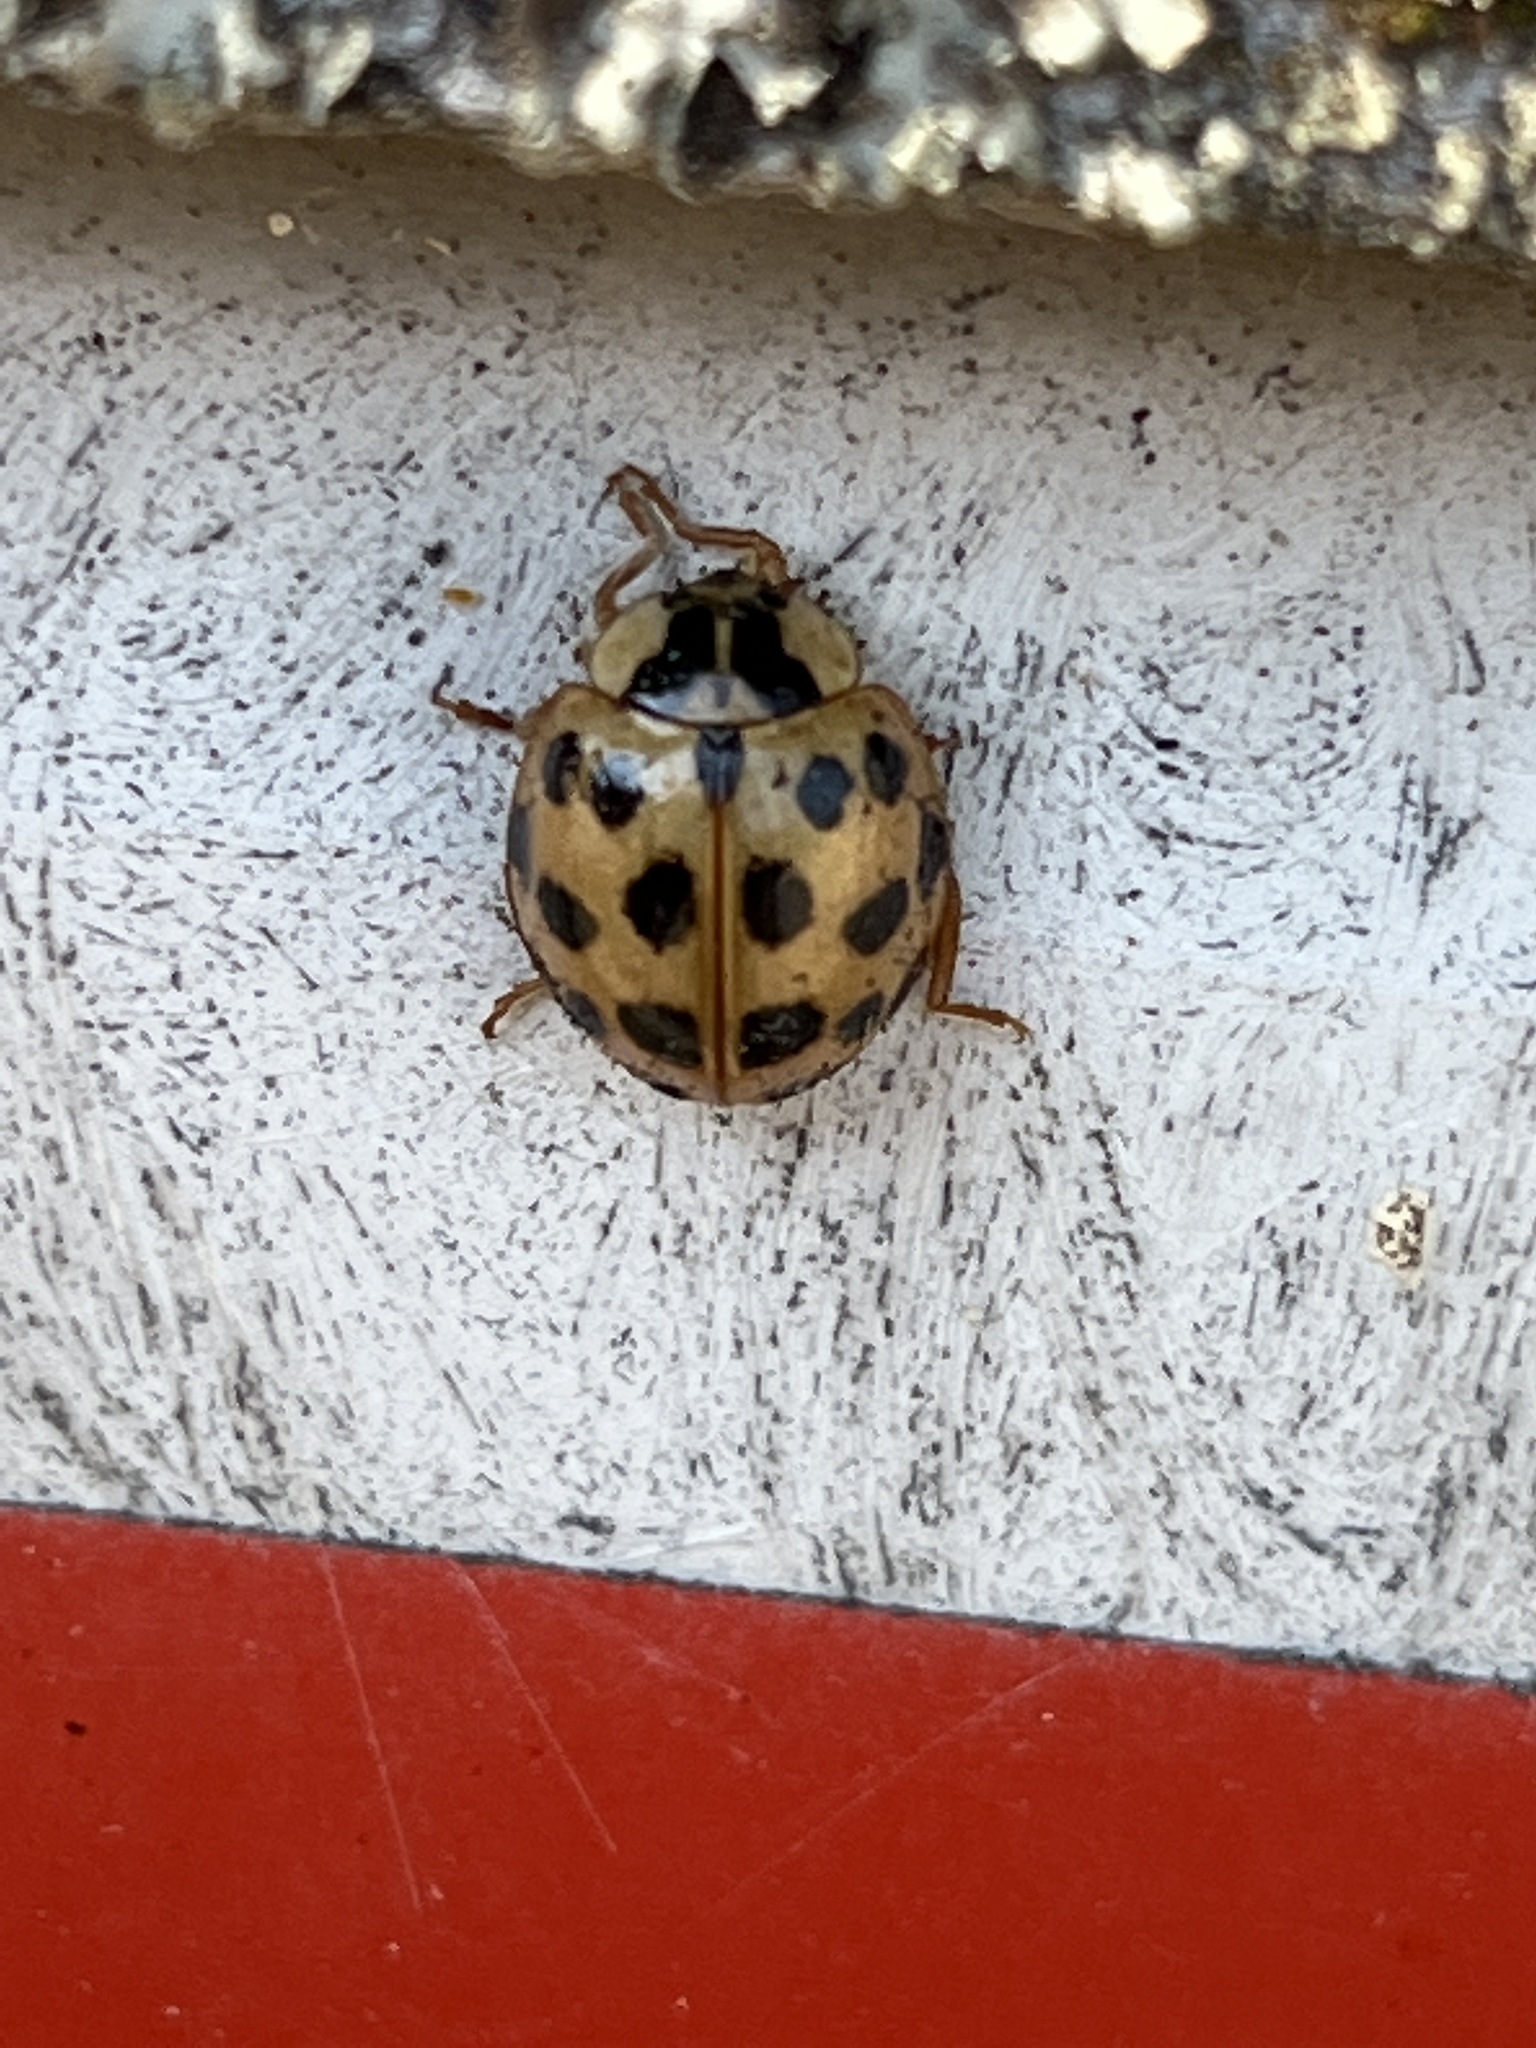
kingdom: Animalia
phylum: Arthropoda
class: Insecta
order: Coleoptera
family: Coccinellidae
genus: Harmonia
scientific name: Harmonia axyridis
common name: Harlequin ladybird
